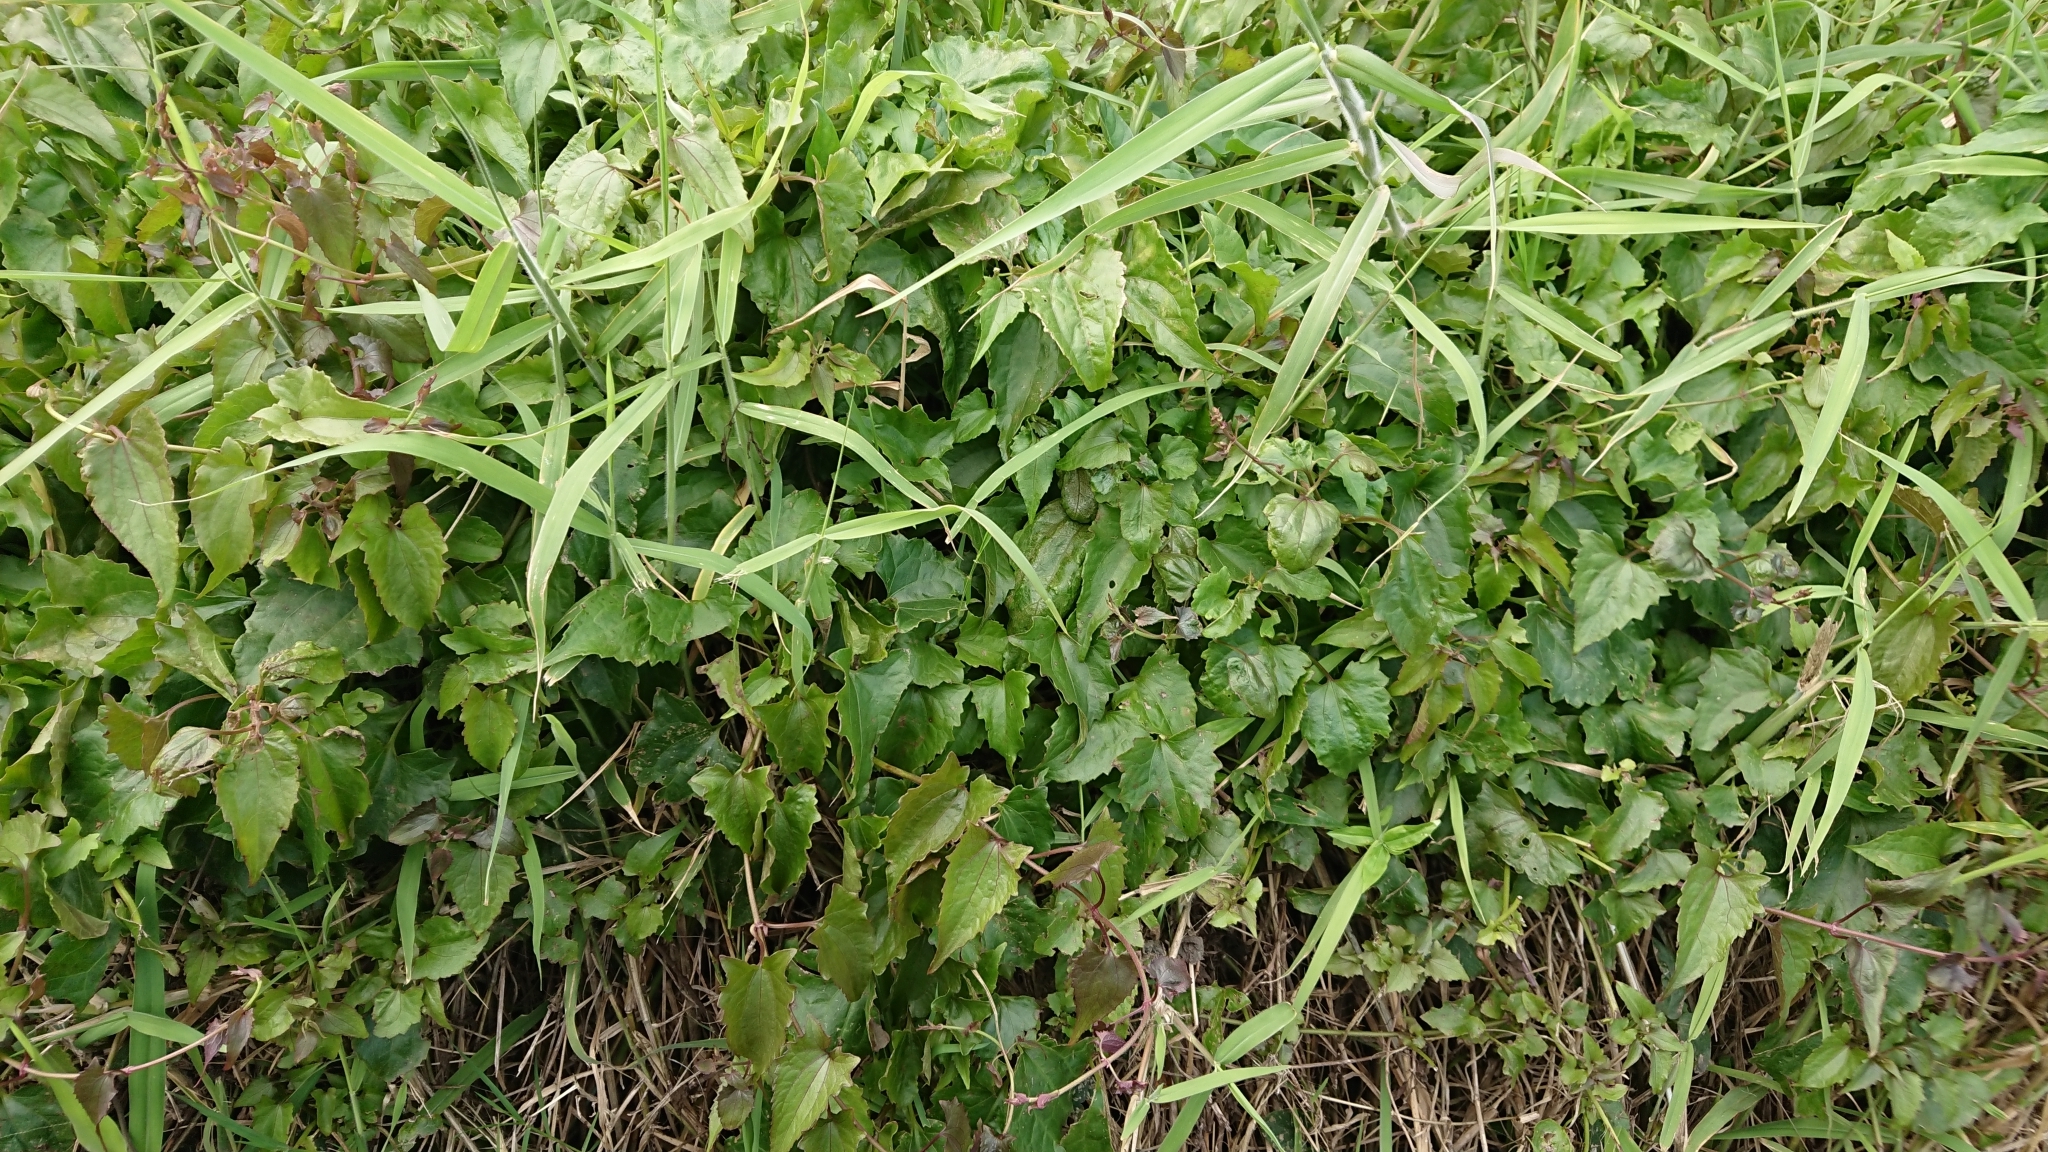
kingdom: Plantae
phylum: Tracheophyta
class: Magnoliopsida
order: Asterales
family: Asteraceae
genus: Mikania
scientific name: Mikania micrantha
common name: Mile-a-minute
